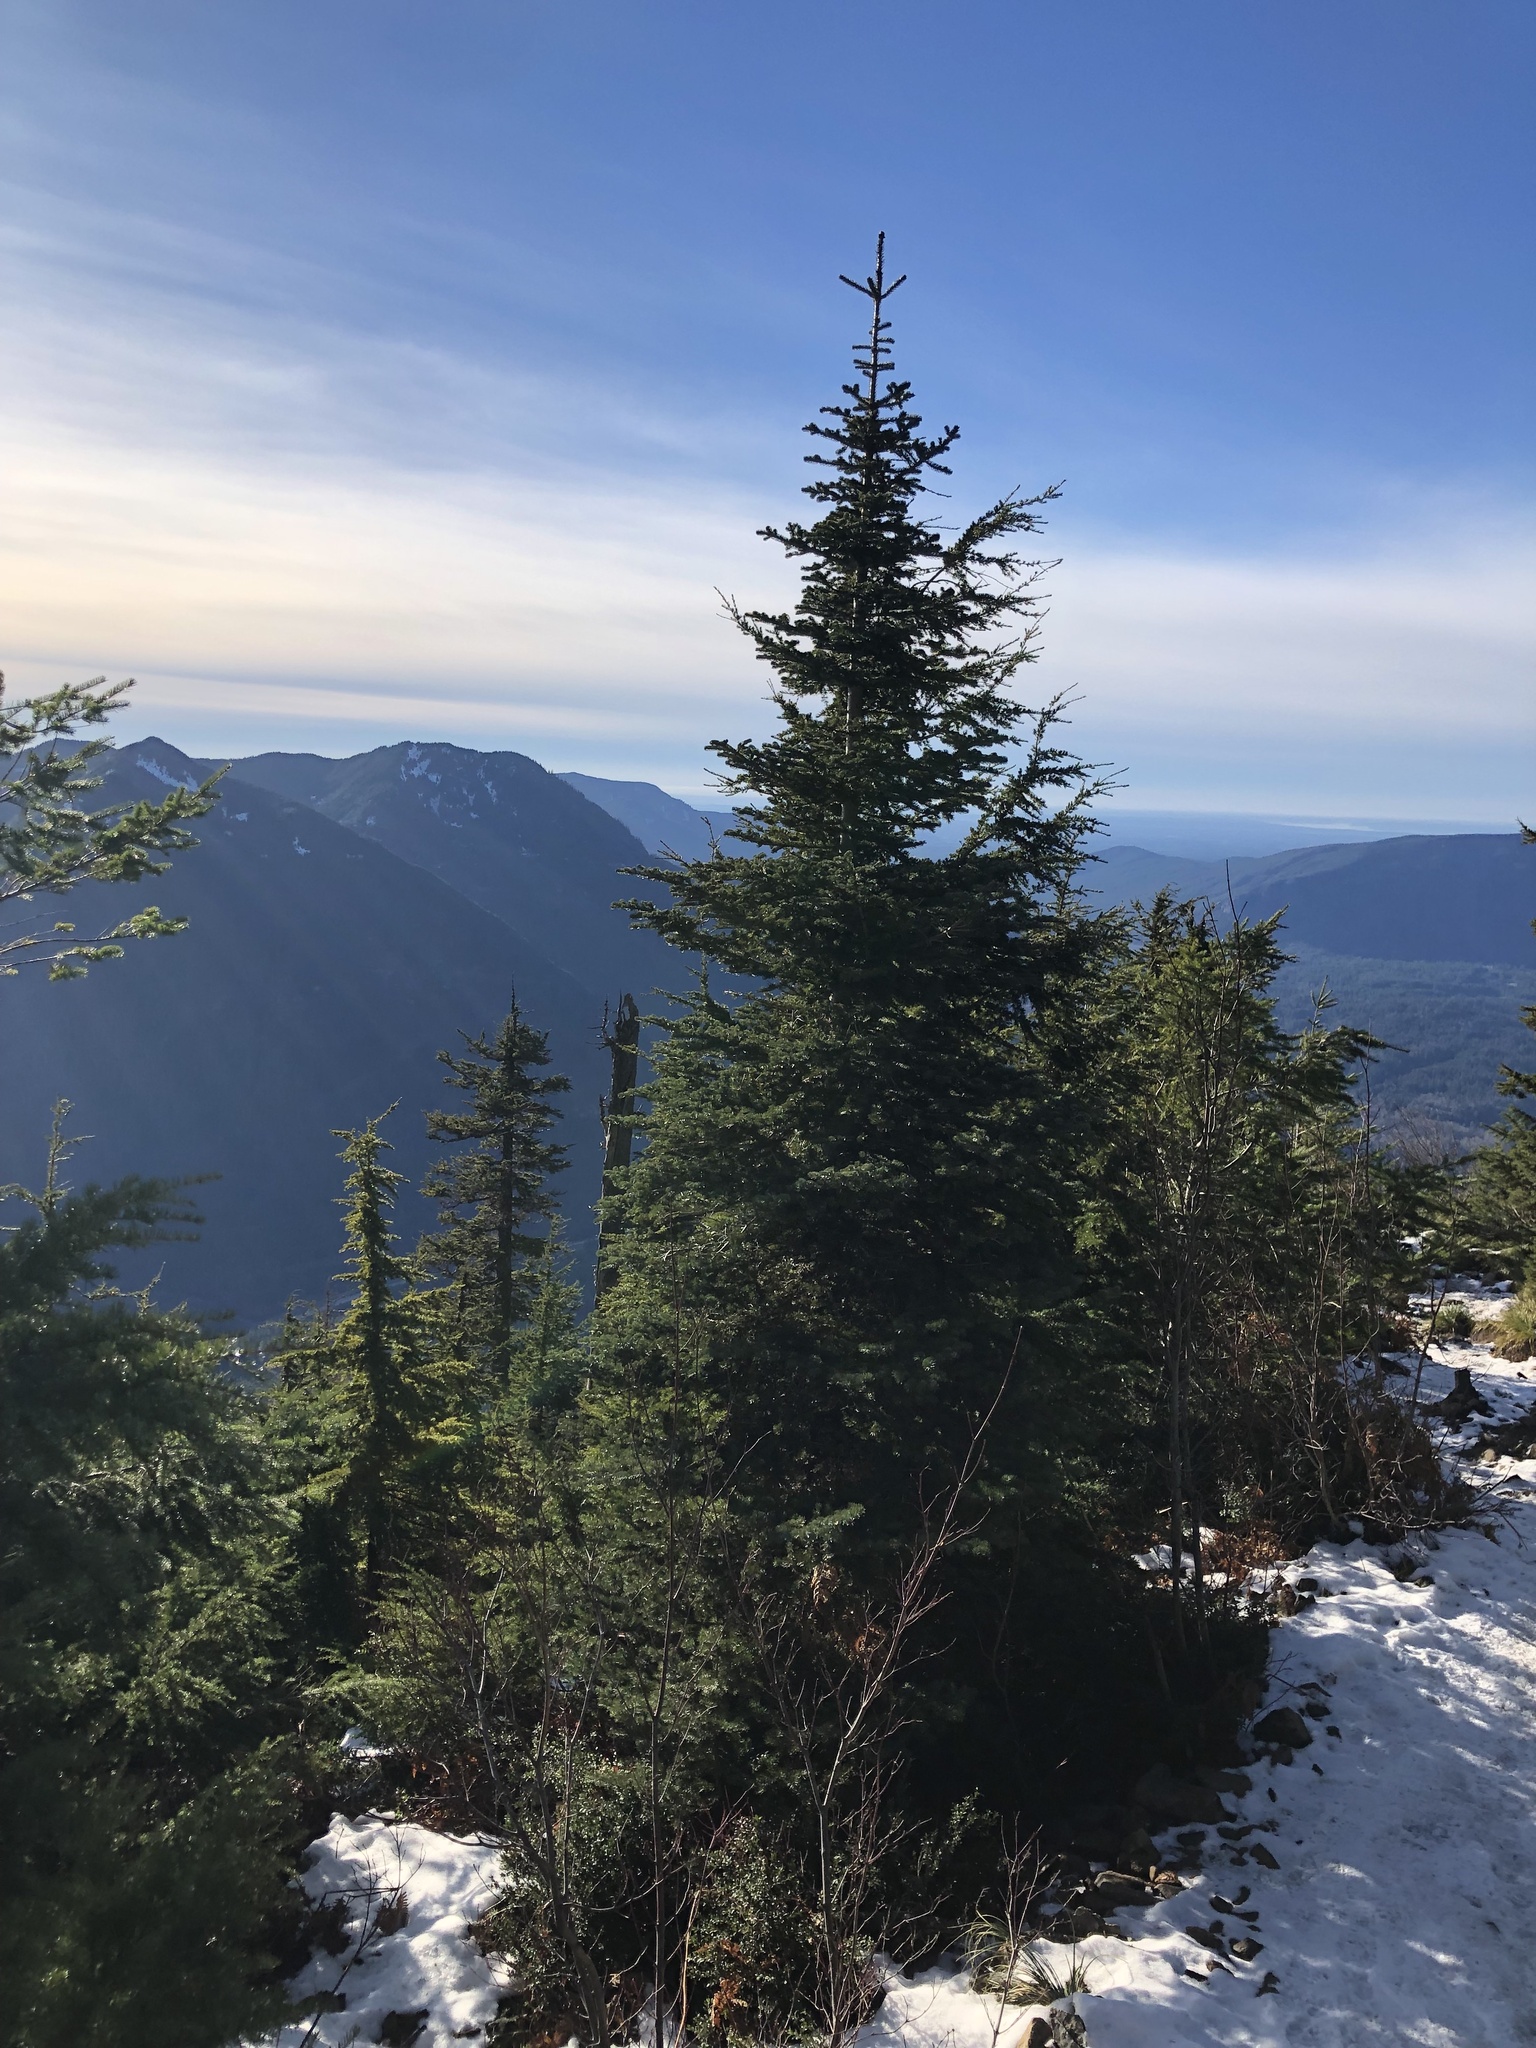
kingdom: Plantae
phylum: Tracheophyta
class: Pinopsida
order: Pinales
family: Pinaceae
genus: Abies
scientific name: Abies lasiocarpa
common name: Subalpine fir
